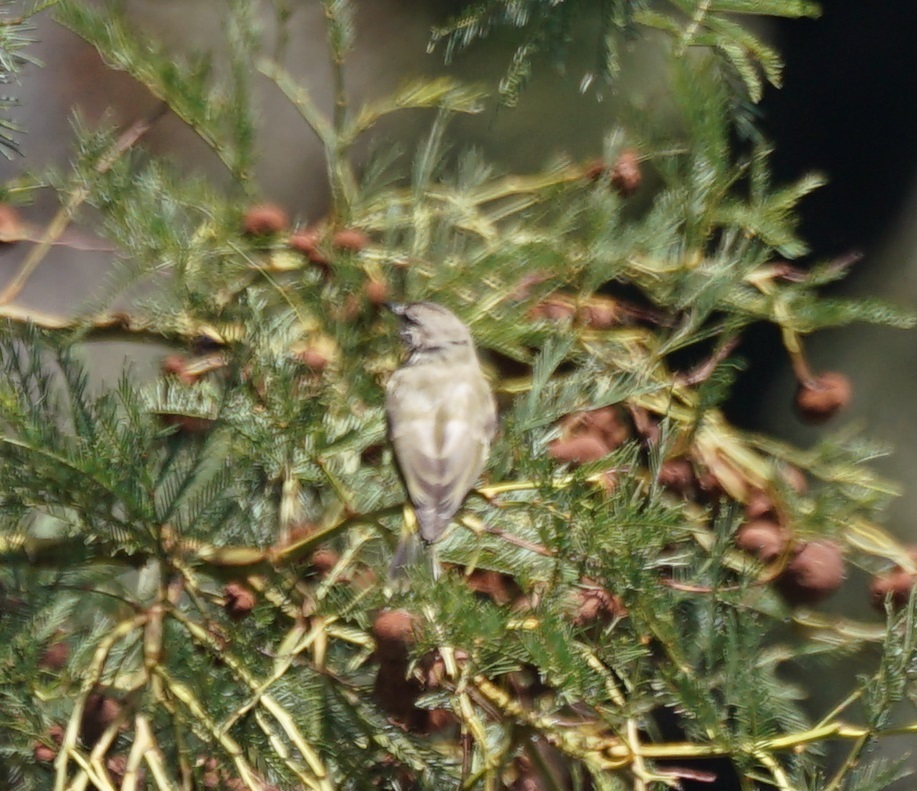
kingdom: Animalia
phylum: Chordata
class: Aves
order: Passeriformes
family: Acanthizidae
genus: Acanthiza
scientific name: Acanthiza chrysorrhoa
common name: Yellow-rumped thornbill
